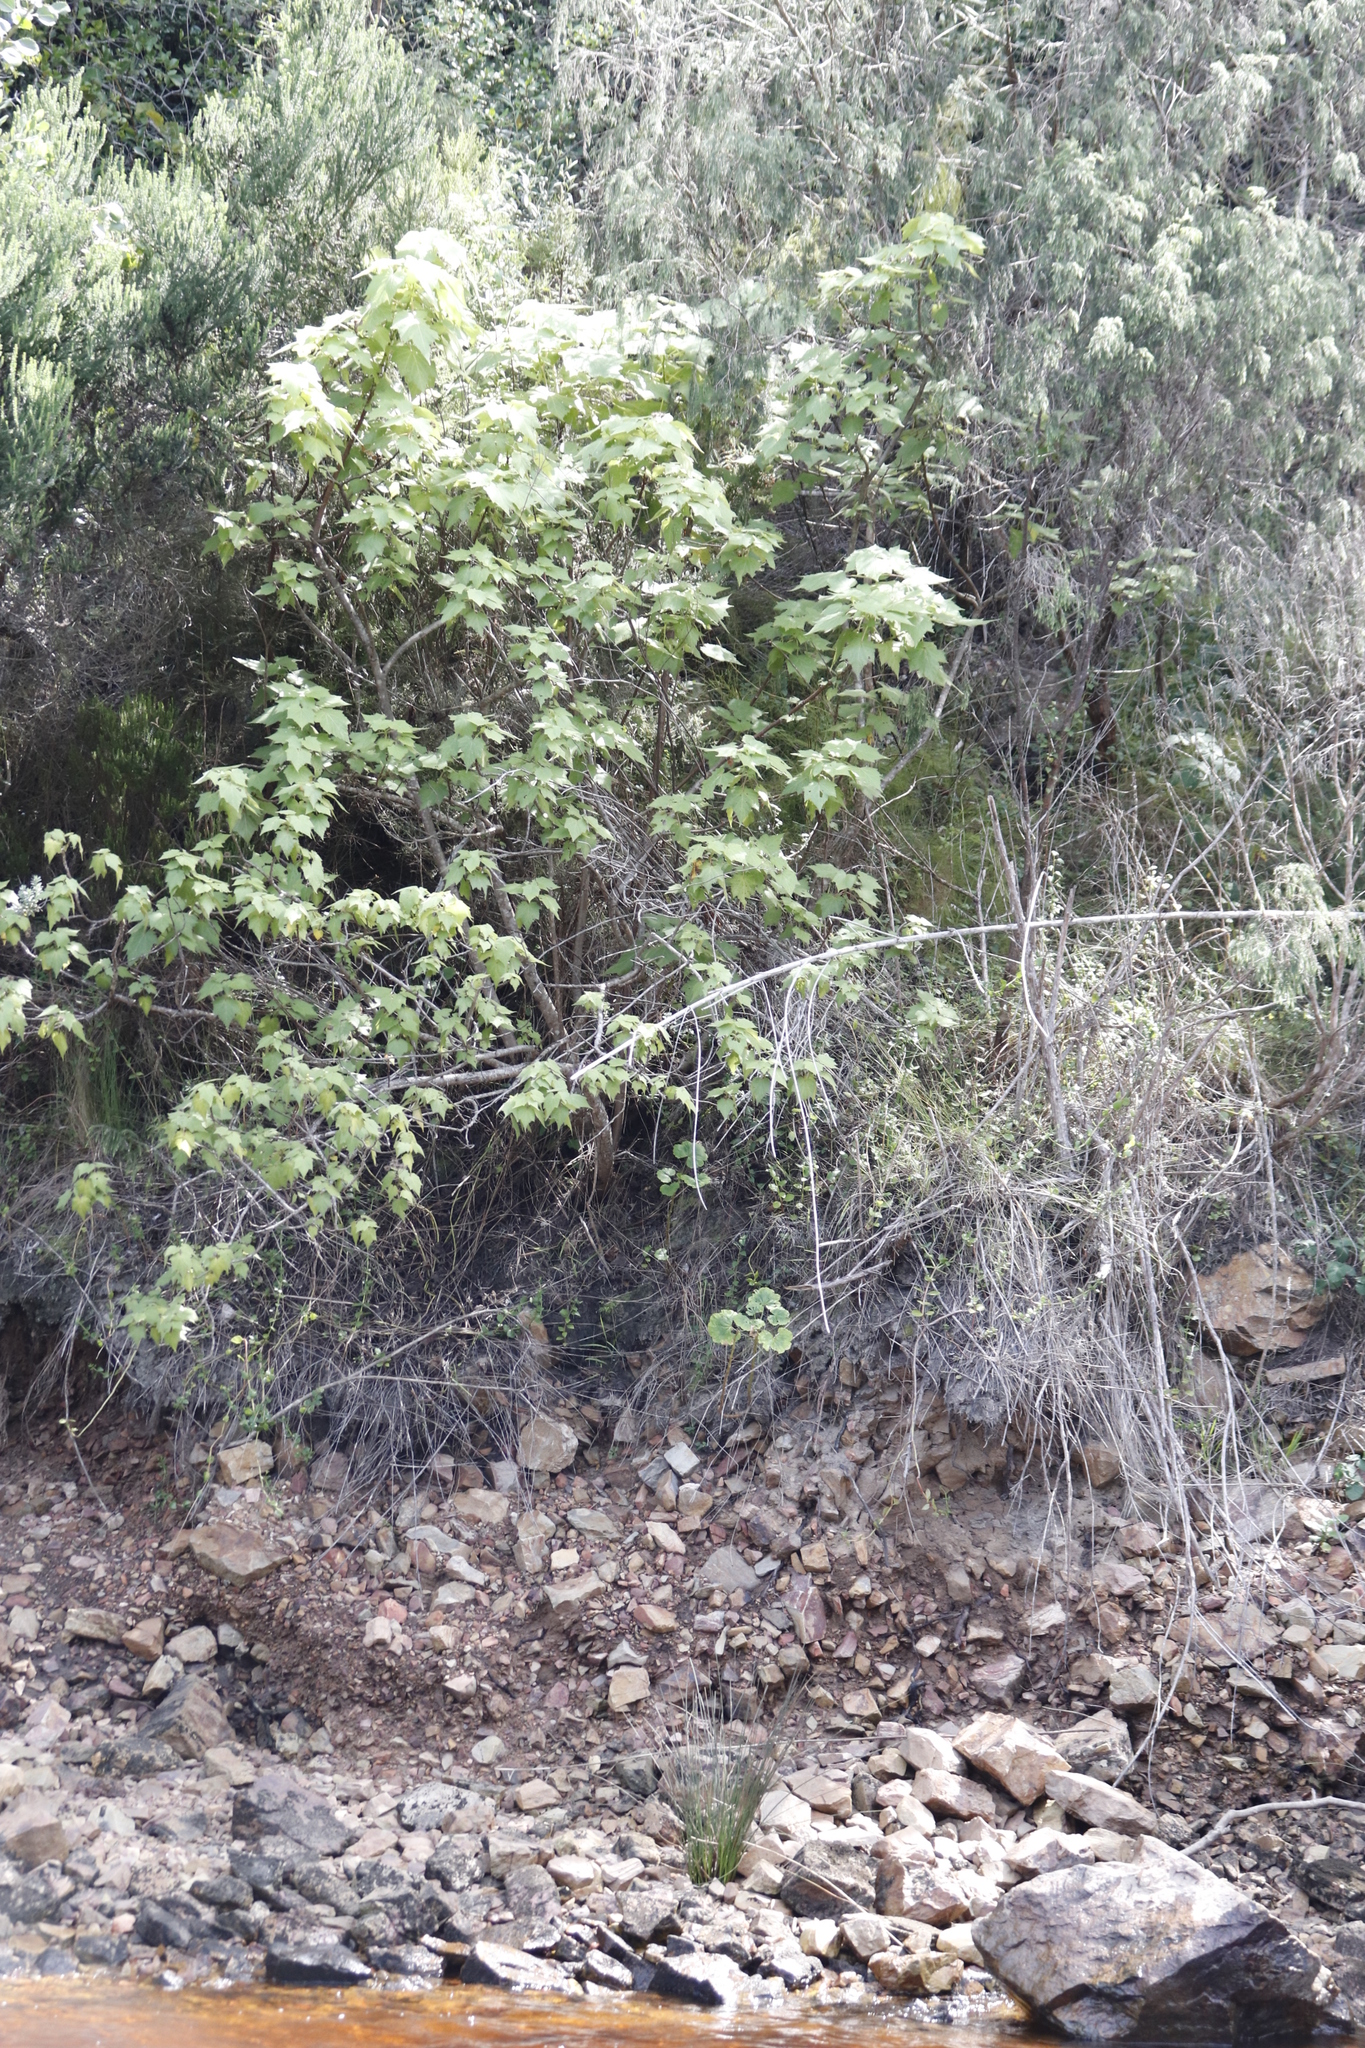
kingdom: Plantae
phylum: Tracheophyta
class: Magnoliopsida
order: Malvales
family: Malvaceae
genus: Sparrmannia
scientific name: Sparrmannia africana
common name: African-hemp
